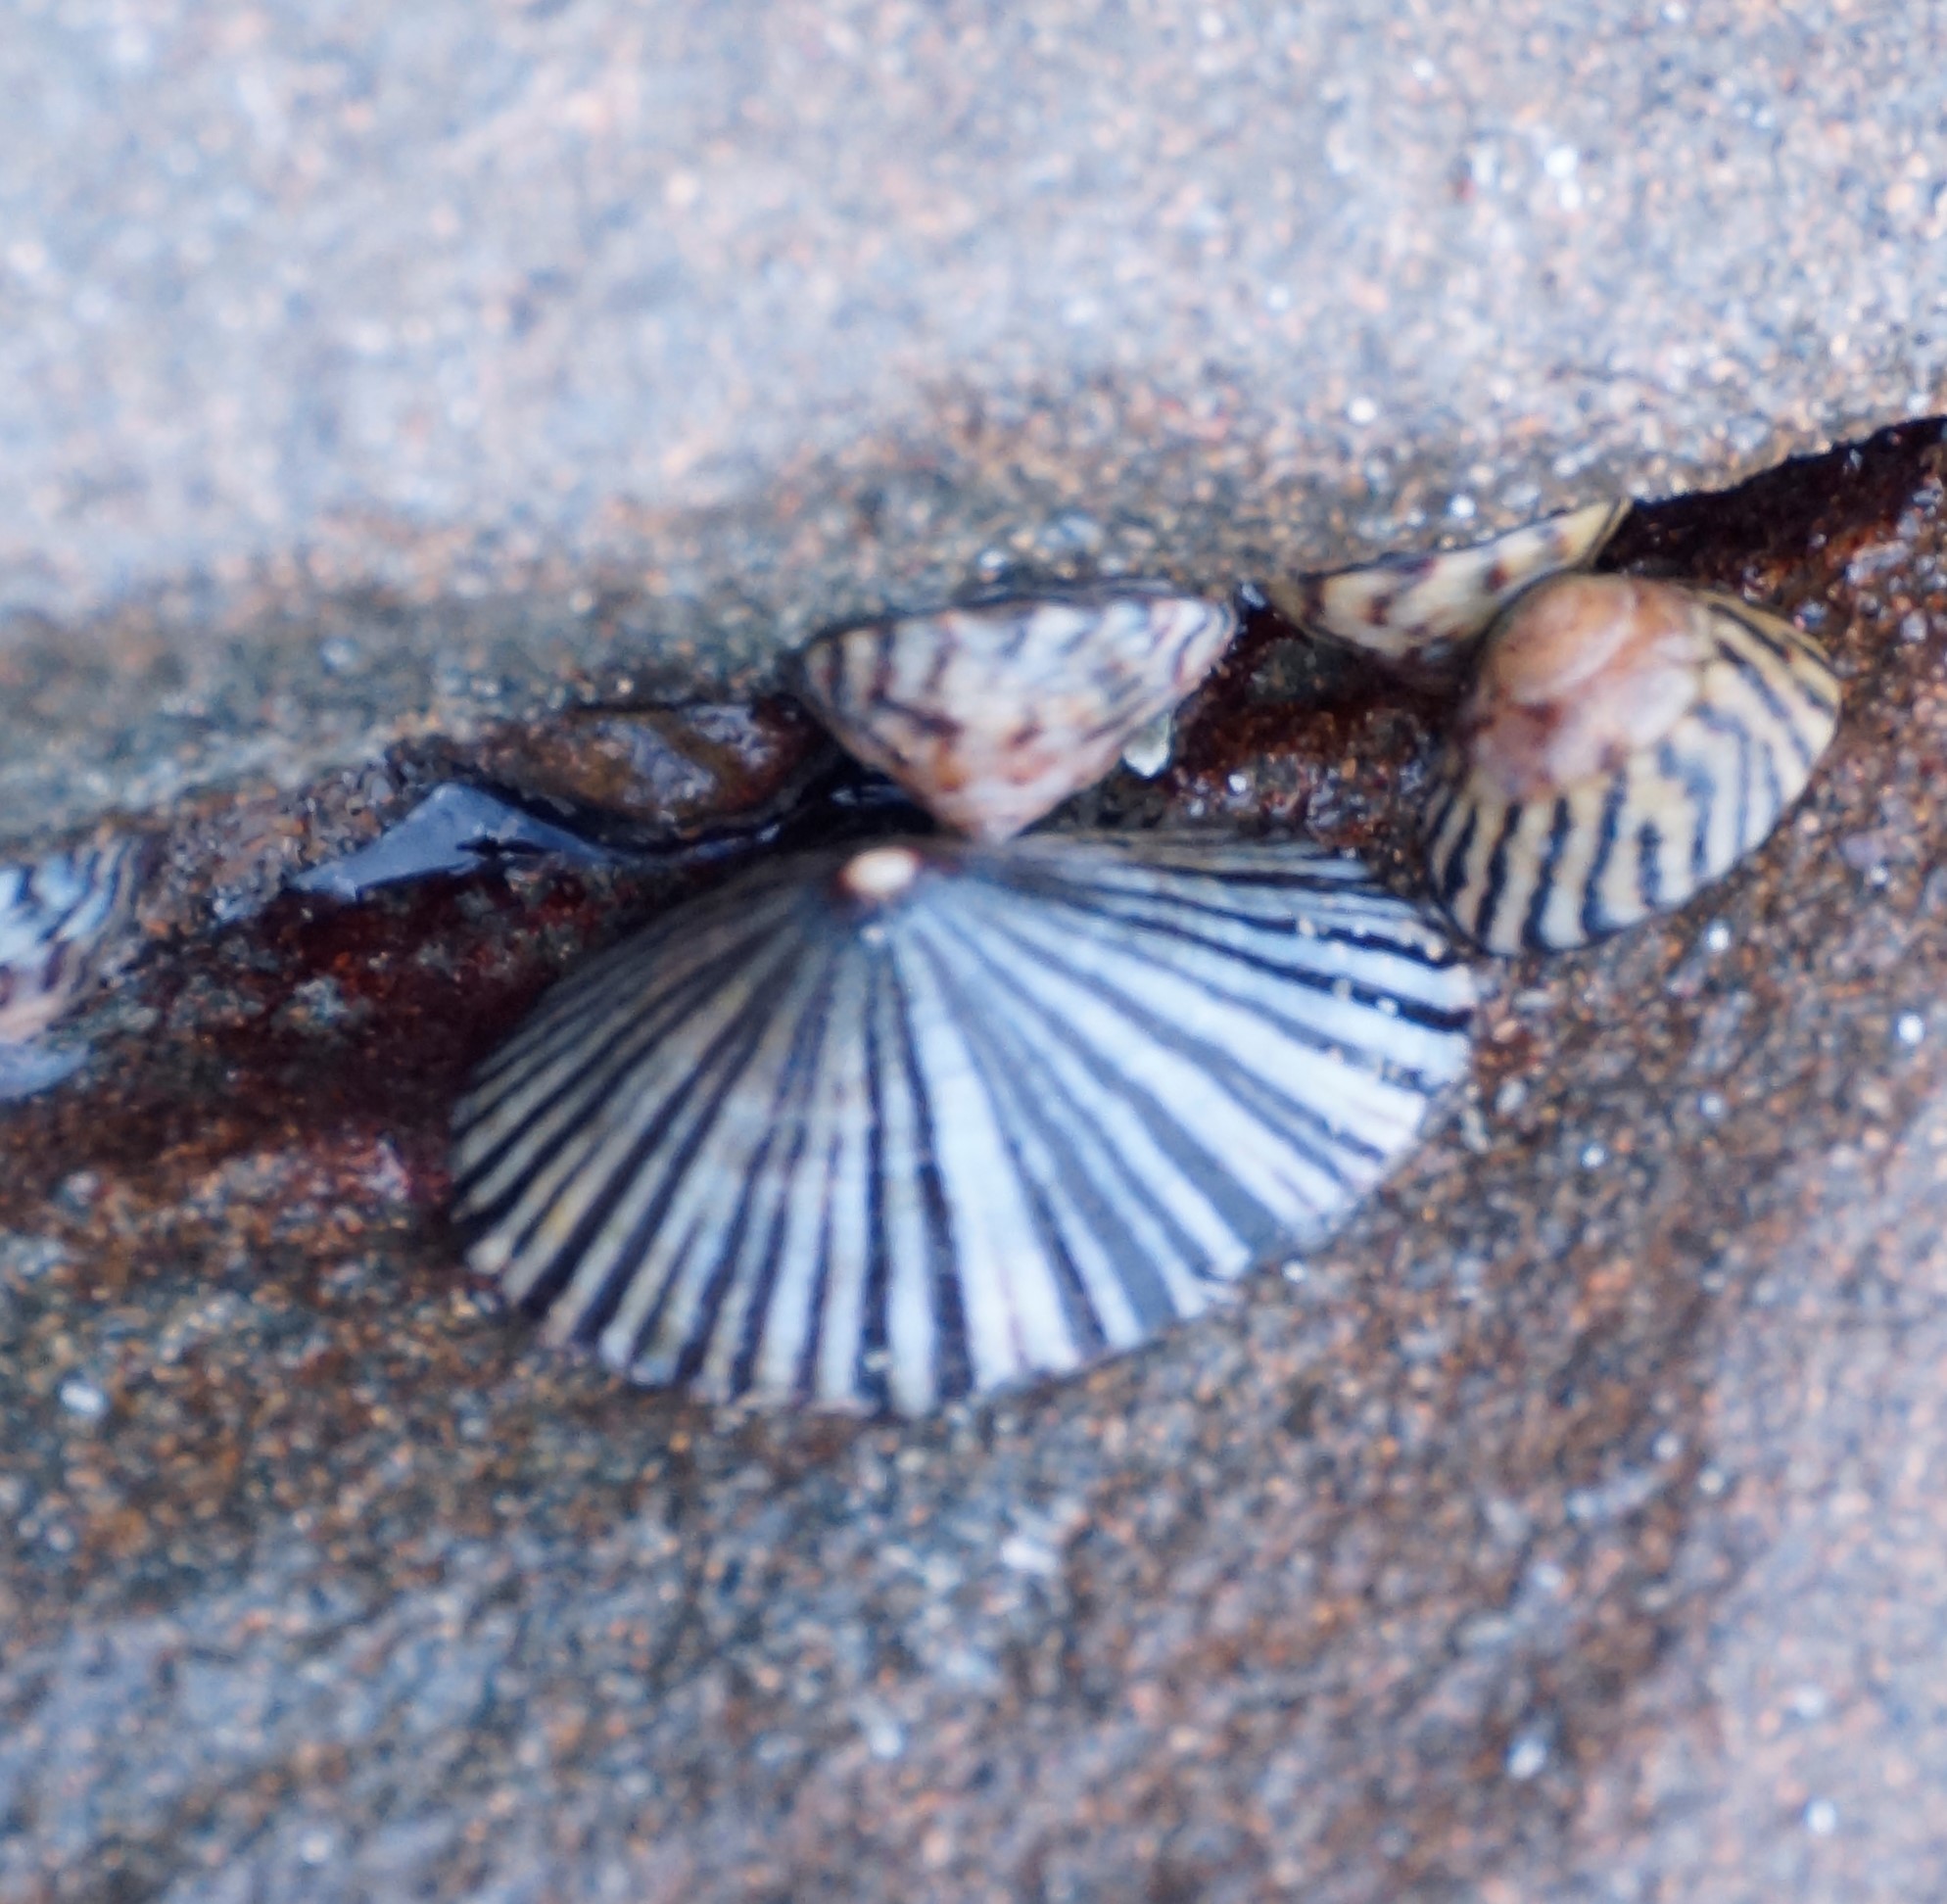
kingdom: Animalia
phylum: Mollusca
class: Gastropoda
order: Siphonariida
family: Siphonariidae
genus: Siphonaria
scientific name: Siphonaria funiculata
